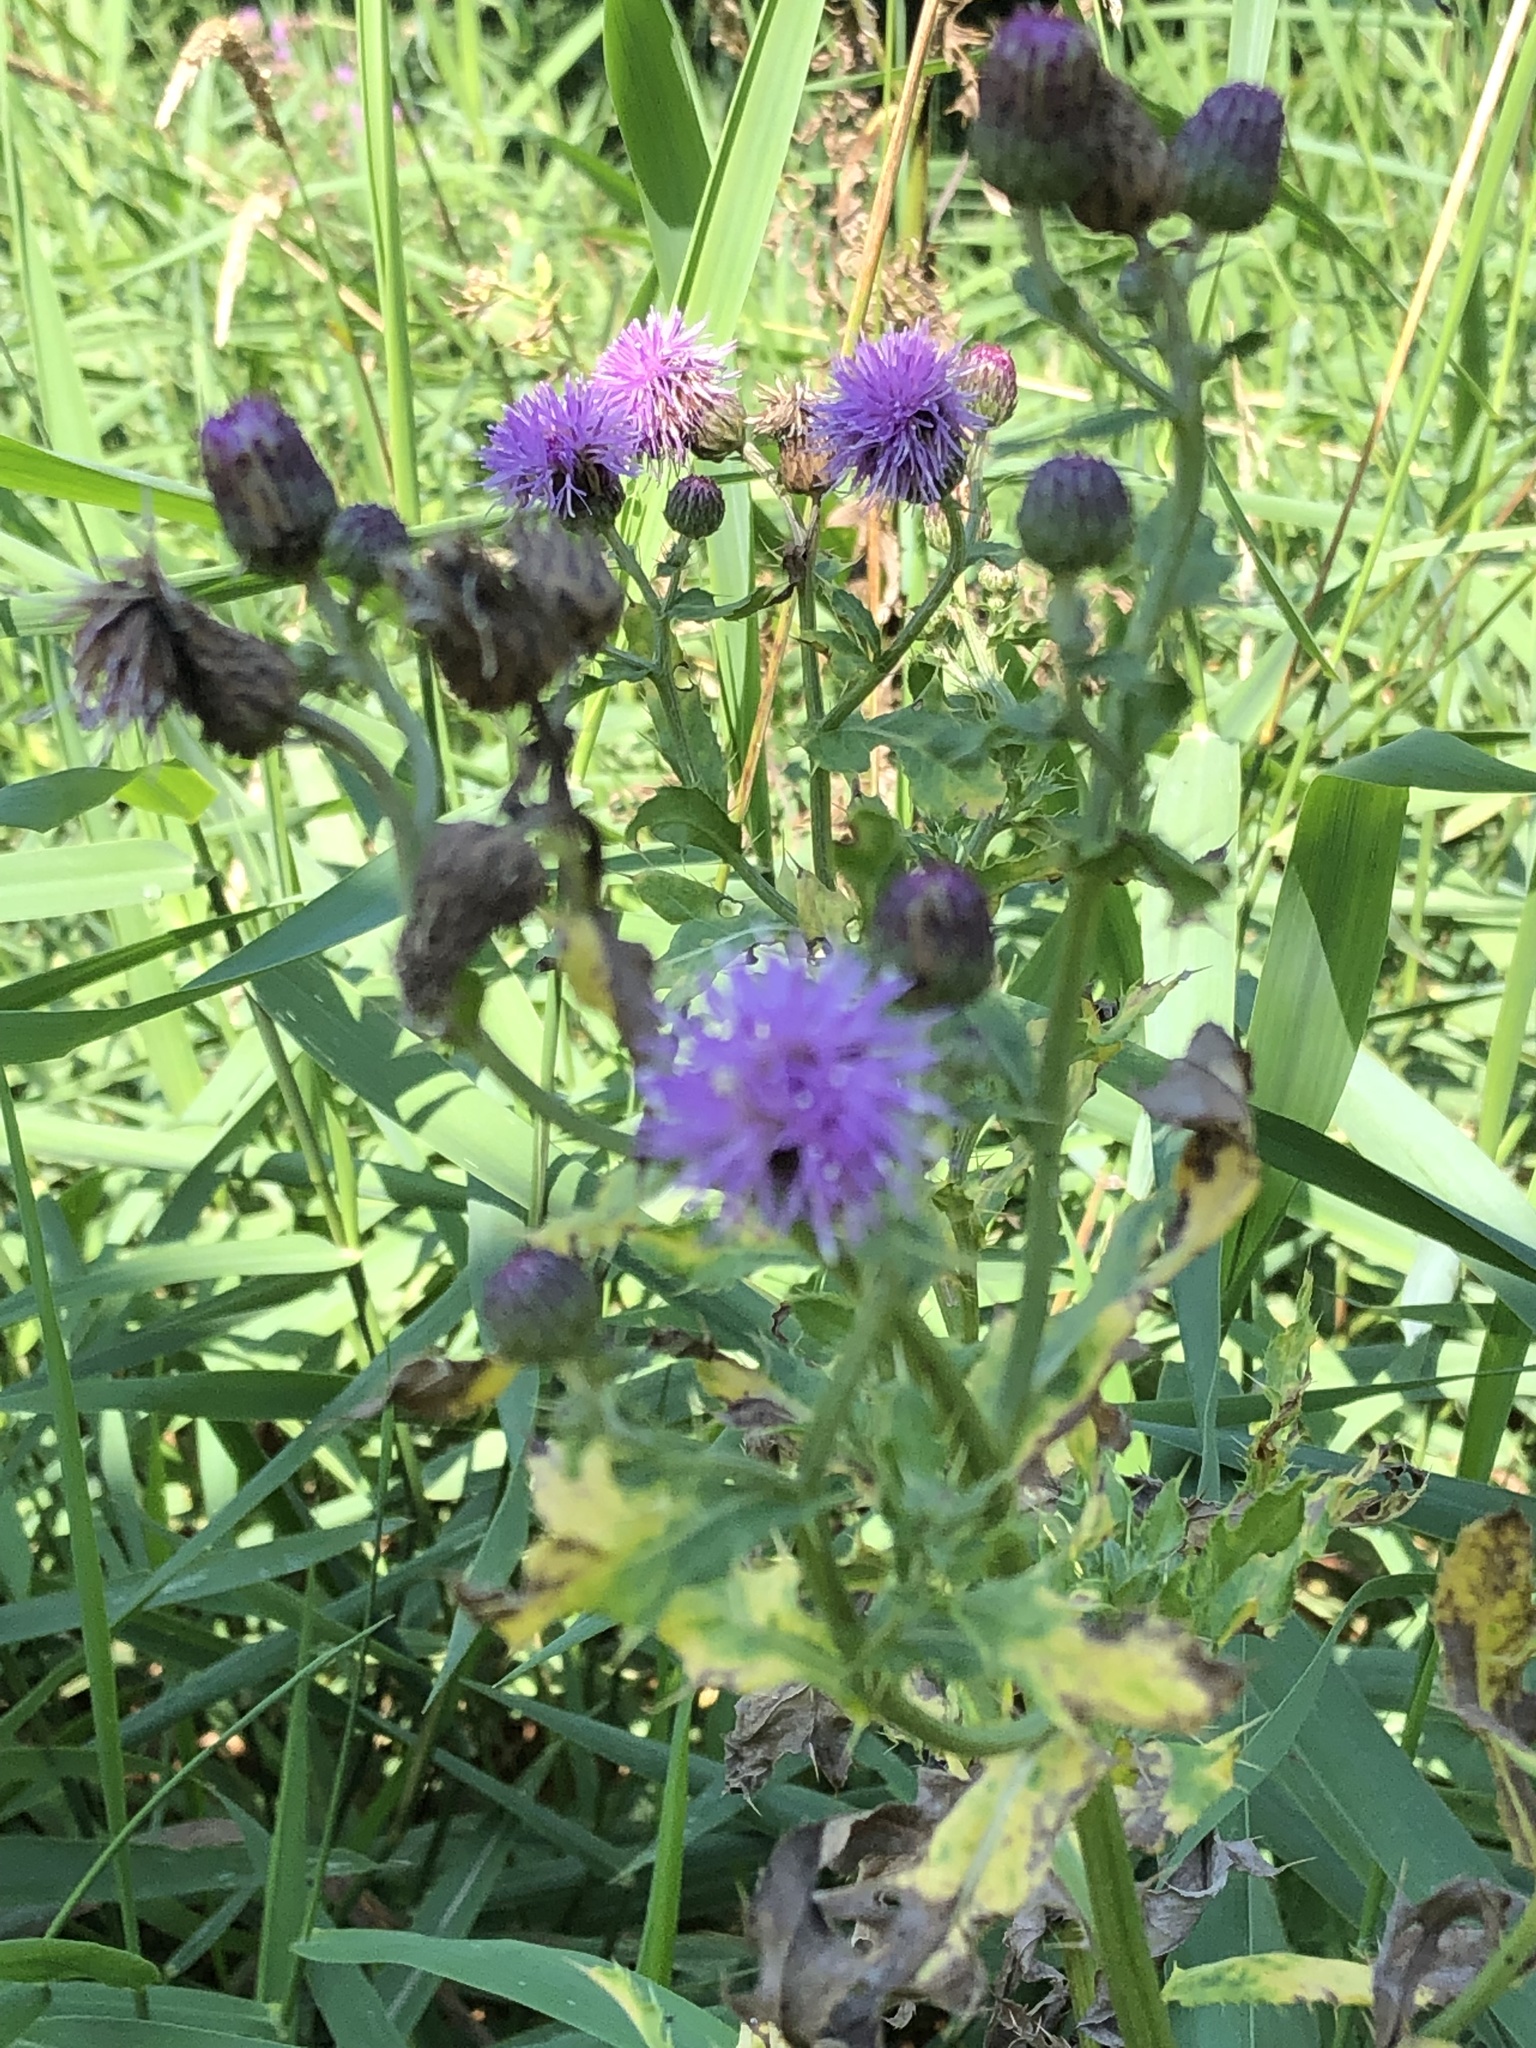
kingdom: Plantae
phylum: Tracheophyta
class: Magnoliopsida
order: Asterales
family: Asteraceae
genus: Cirsium
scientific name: Cirsium arvense
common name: Creeping thistle
